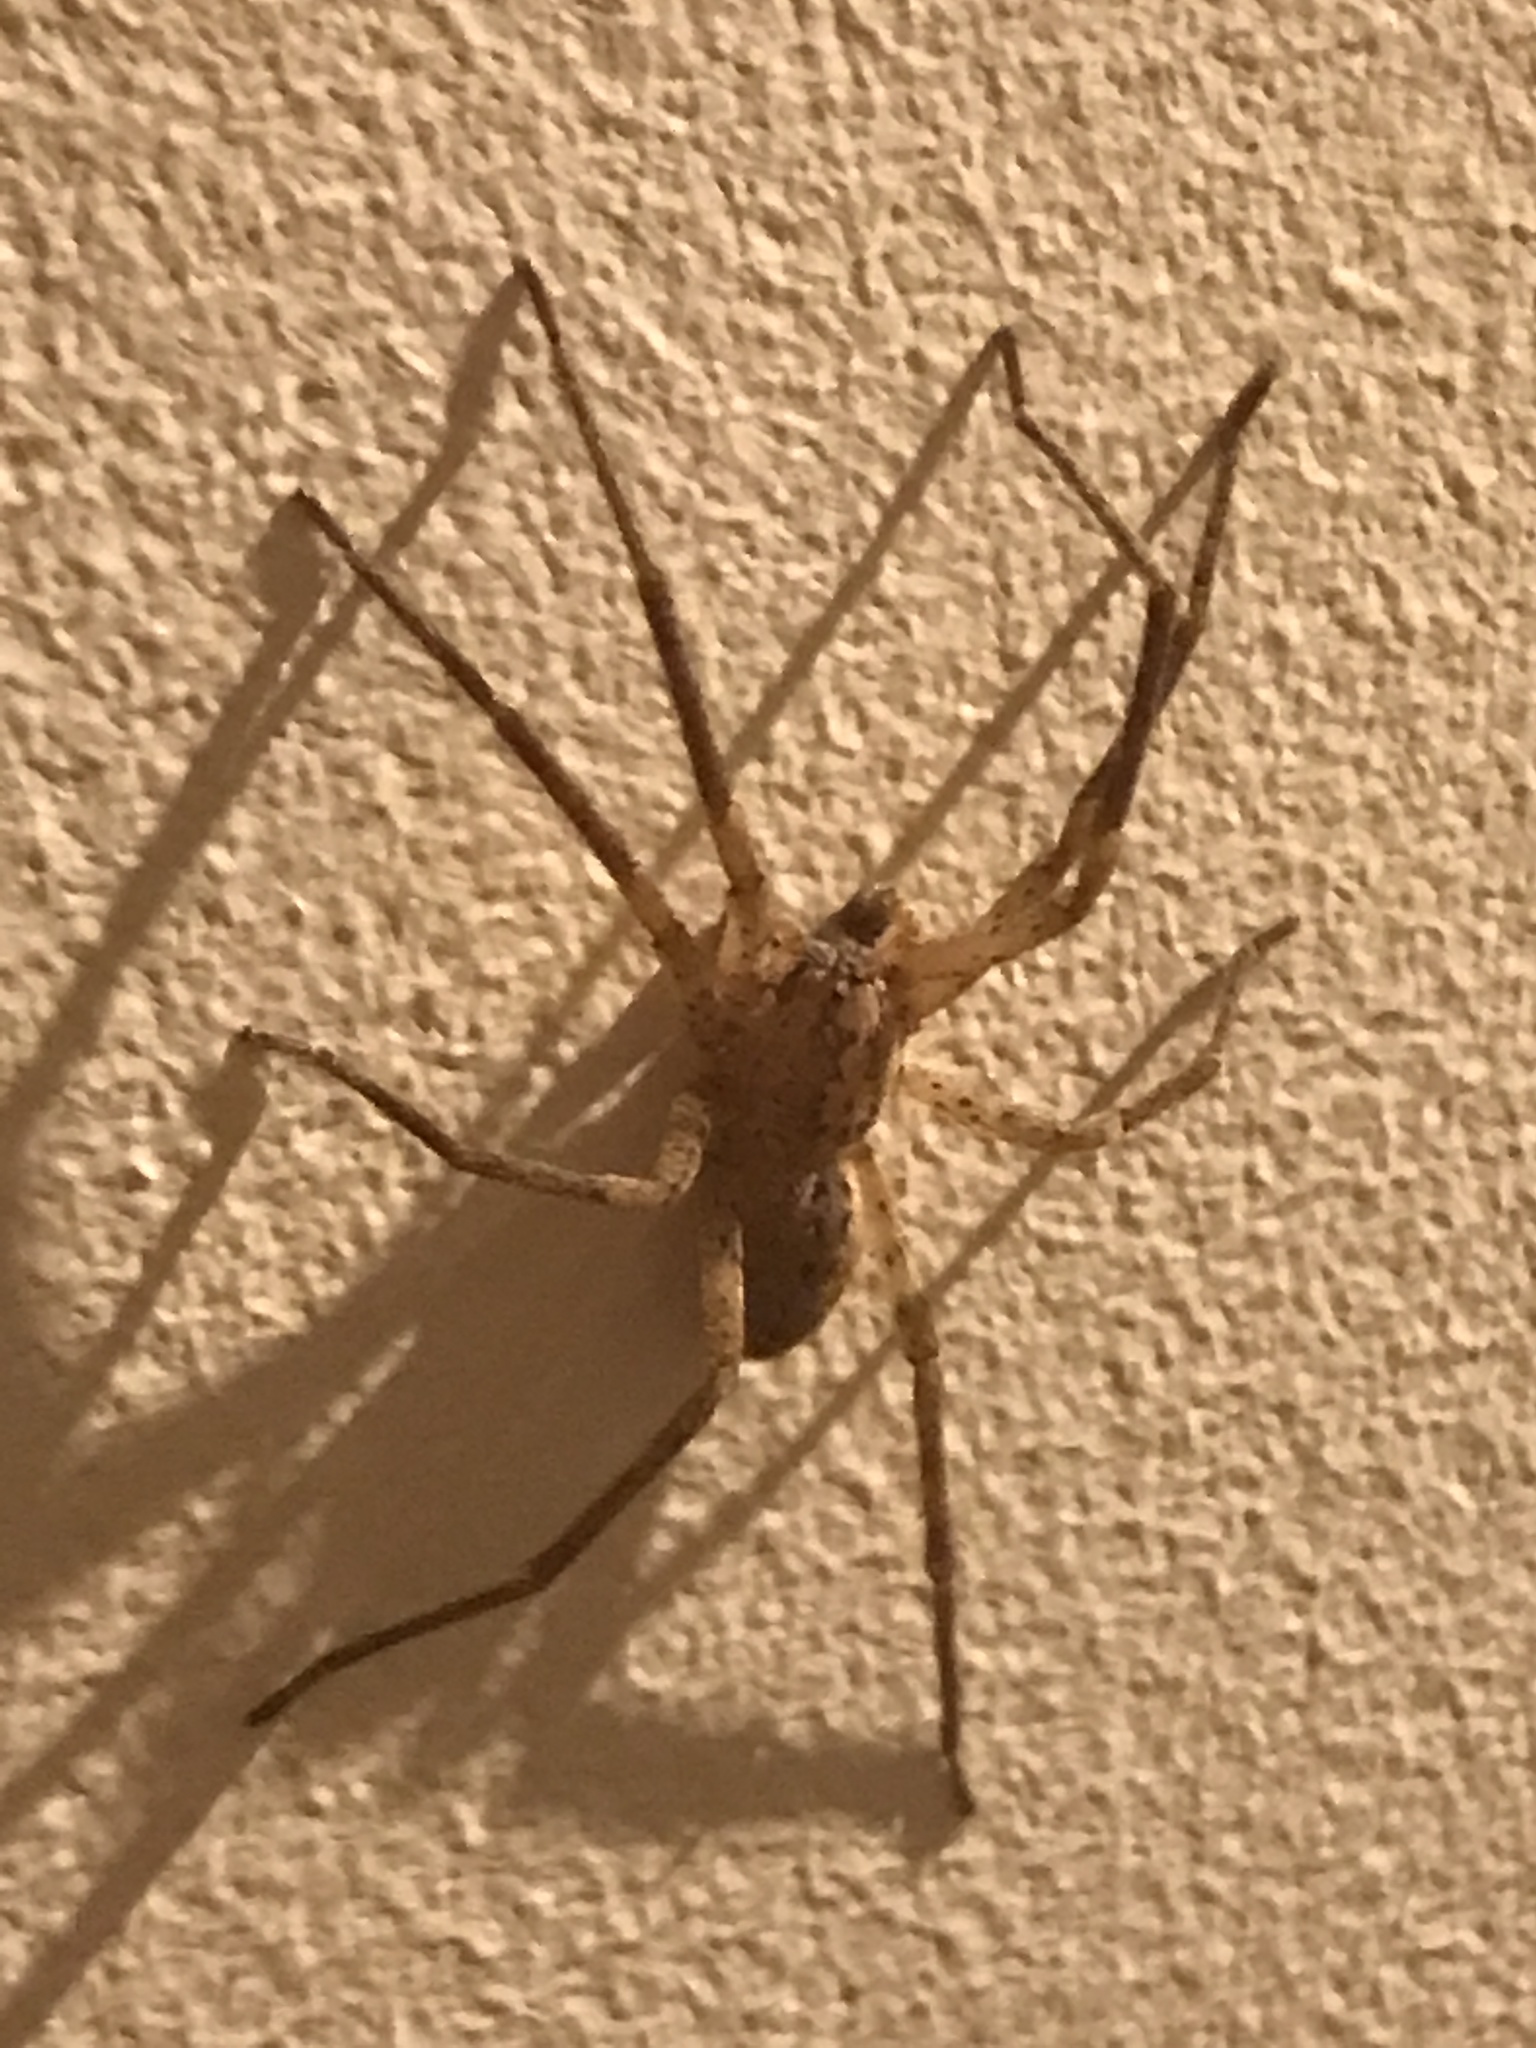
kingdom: Animalia
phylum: Arthropoda
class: Arachnida
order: Araneae
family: Zoropsidae
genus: Zoropsis
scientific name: Zoropsis spinimana
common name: Zoropsid spider
